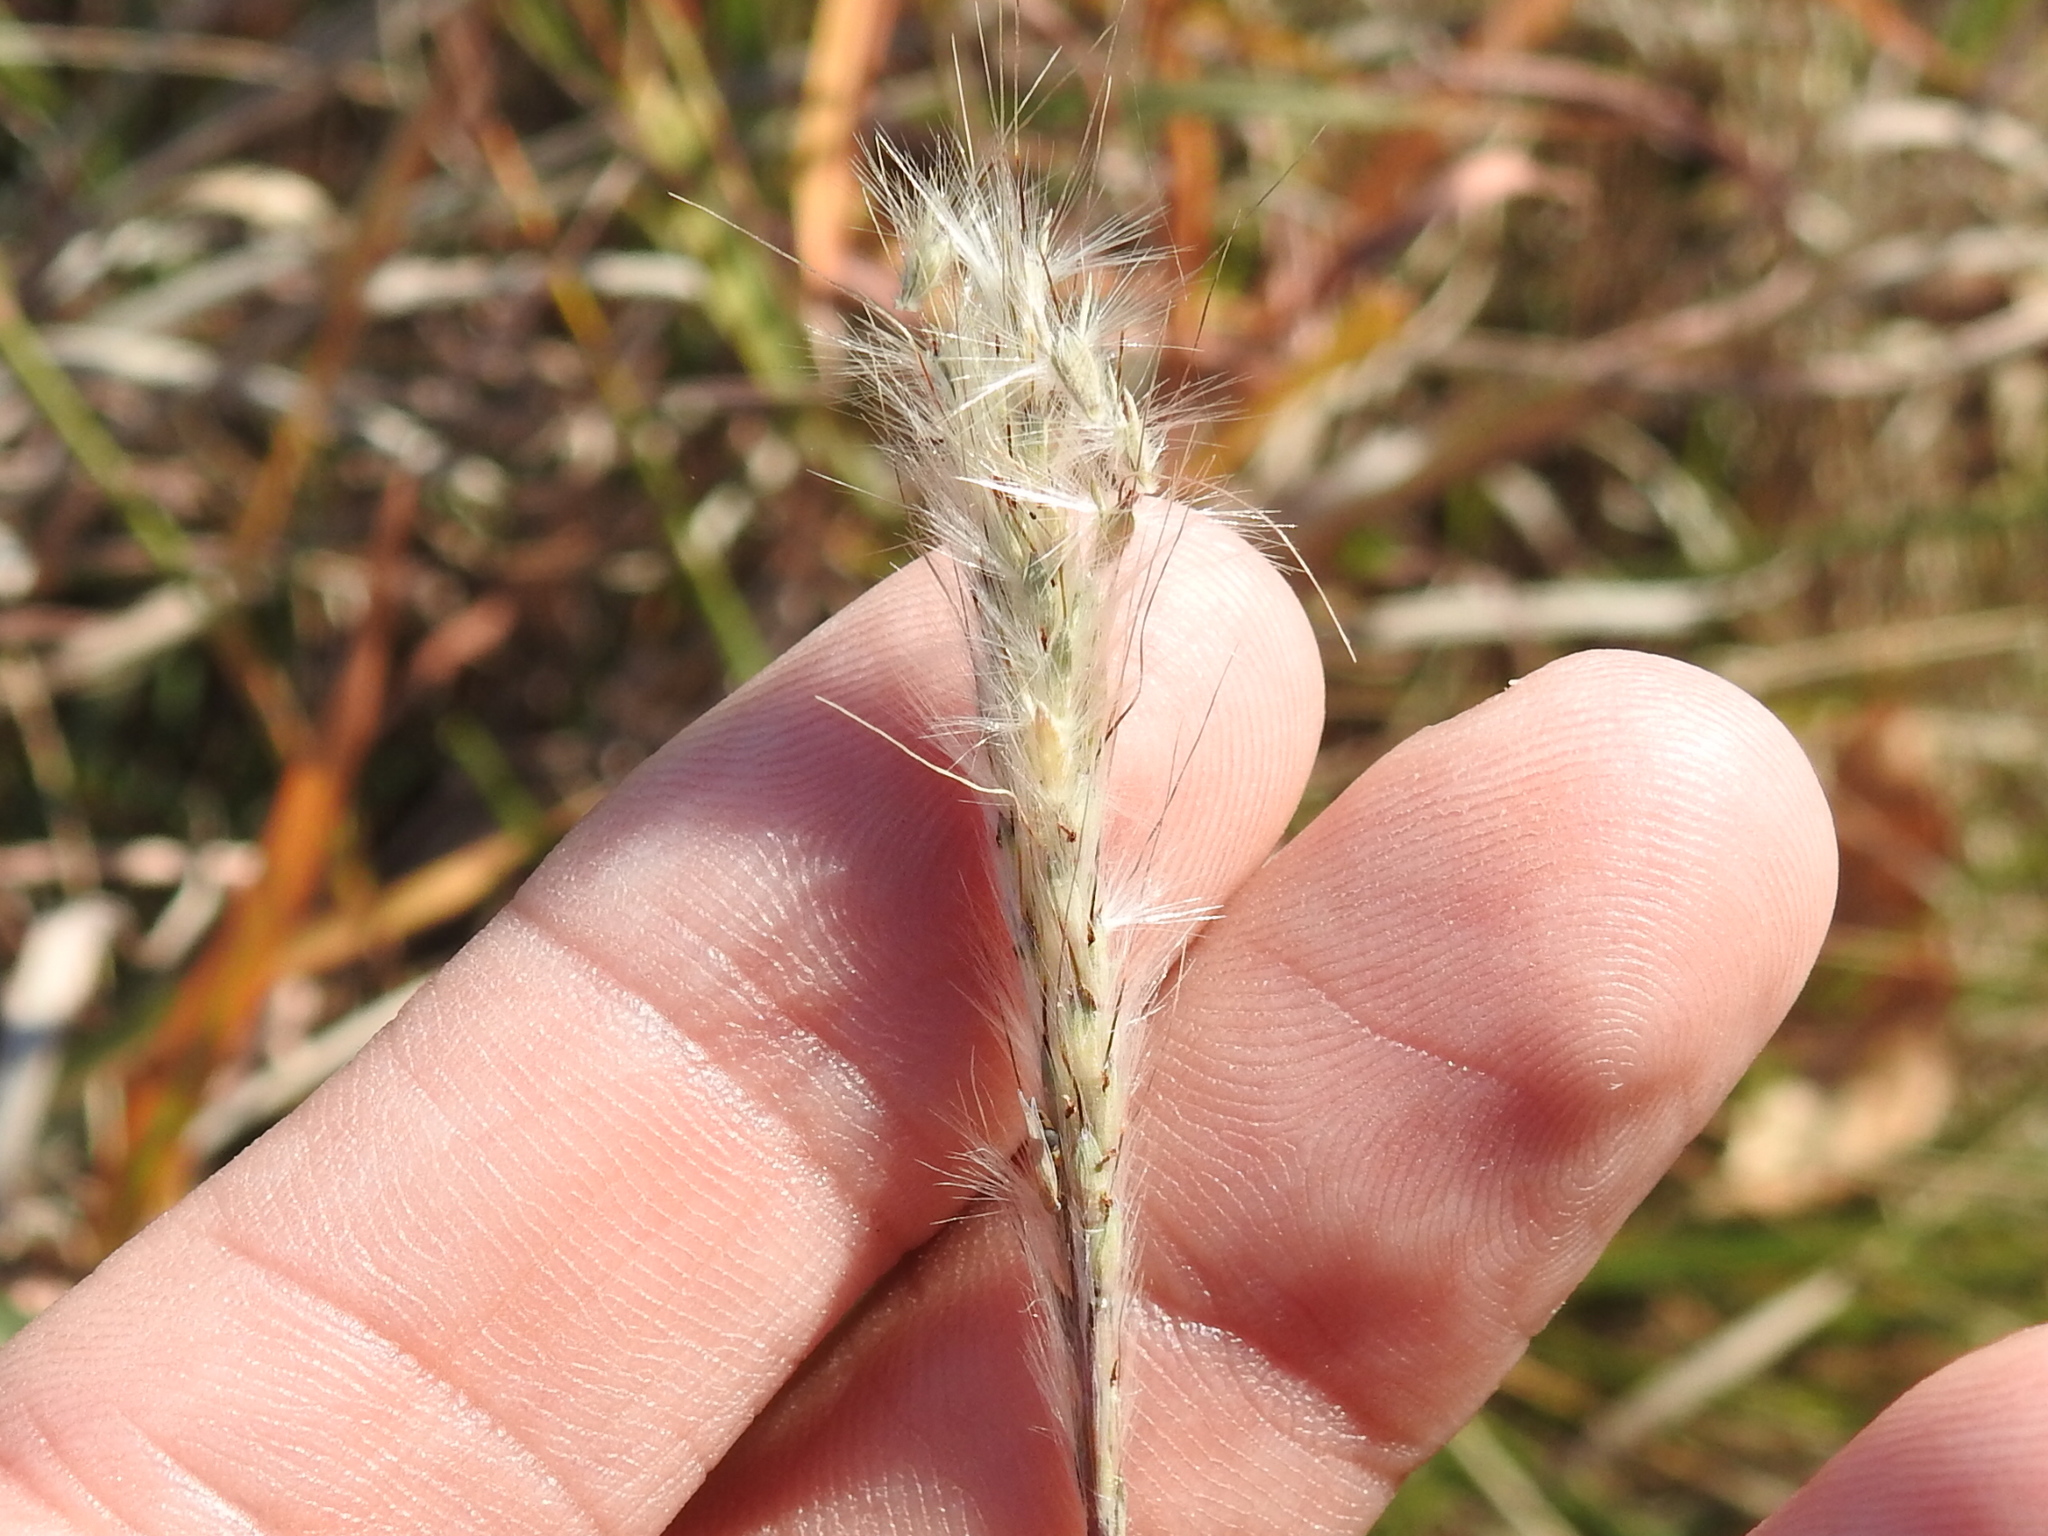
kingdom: Plantae
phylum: Tracheophyta
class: Liliopsida
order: Poales
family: Poaceae
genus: Bothriochloa
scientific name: Bothriochloa torreyana
